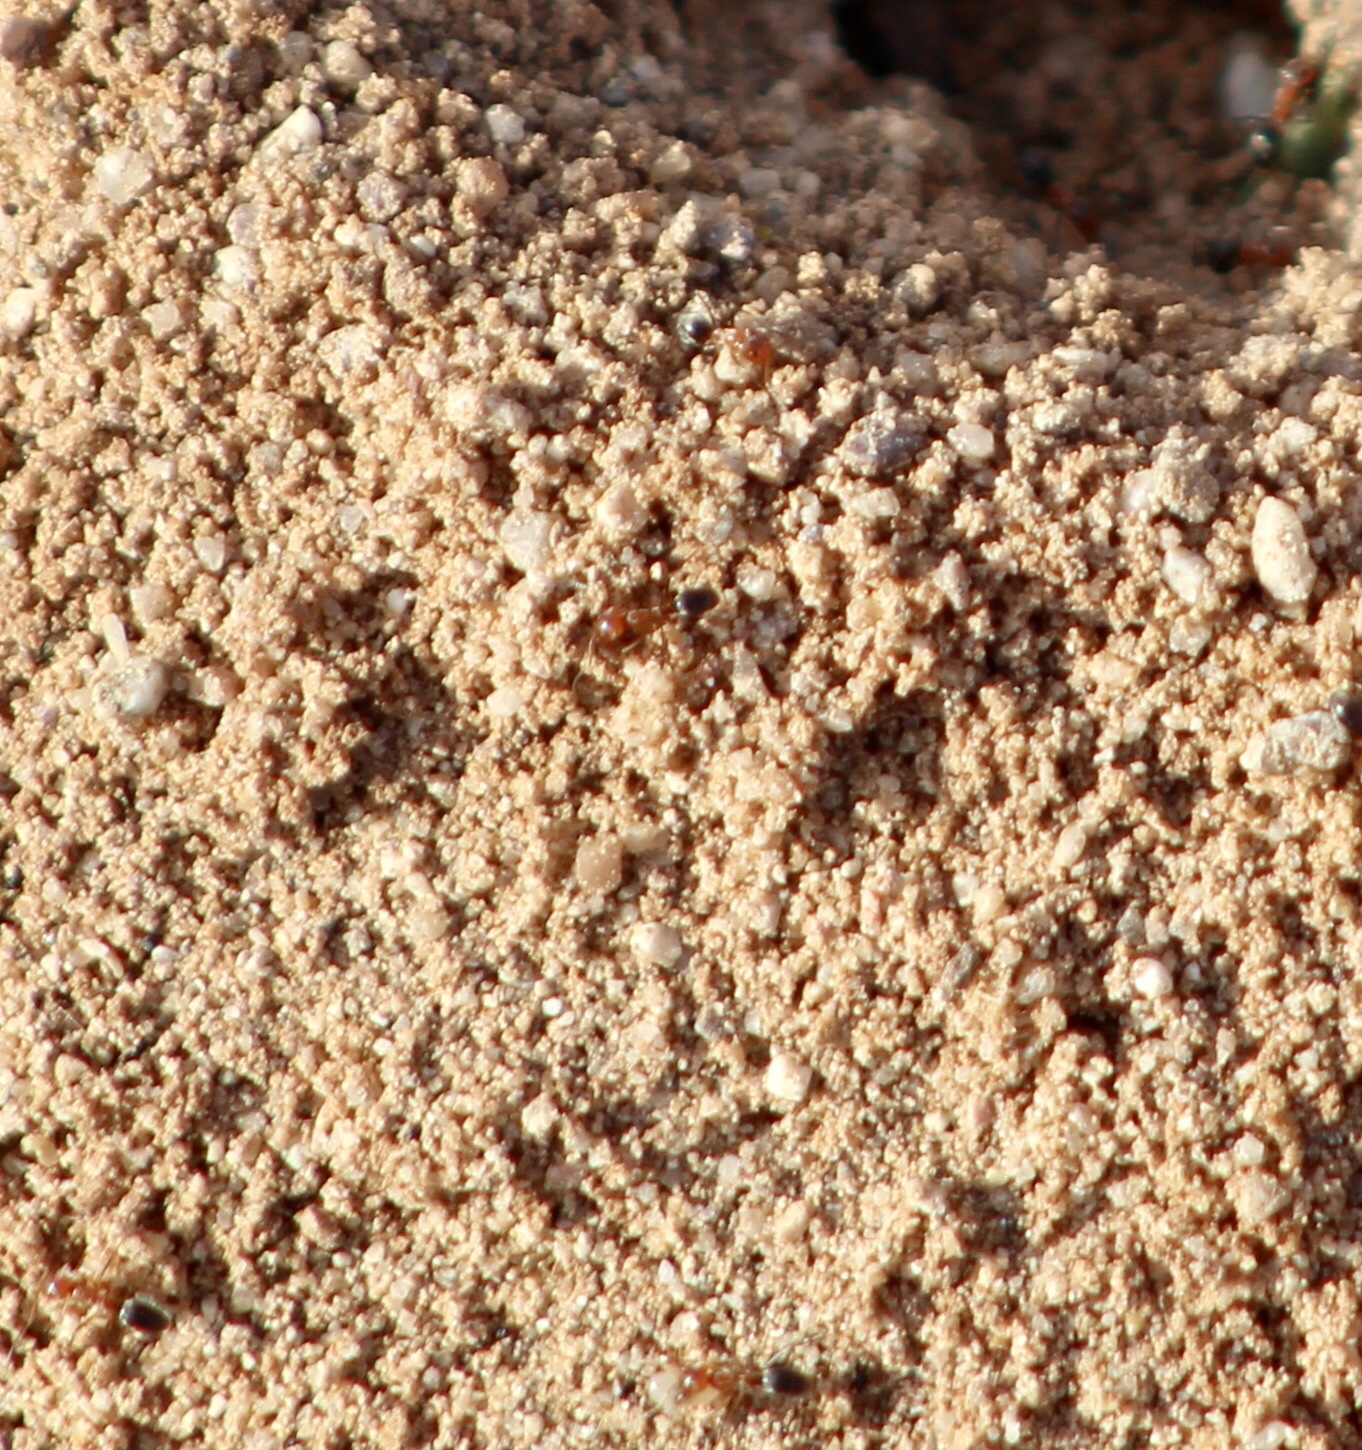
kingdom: Animalia
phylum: Arthropoda
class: Insecta
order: Hymenoptera
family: Formicidae
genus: Dorymyrmex
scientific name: Dorymyrmex bicolor
